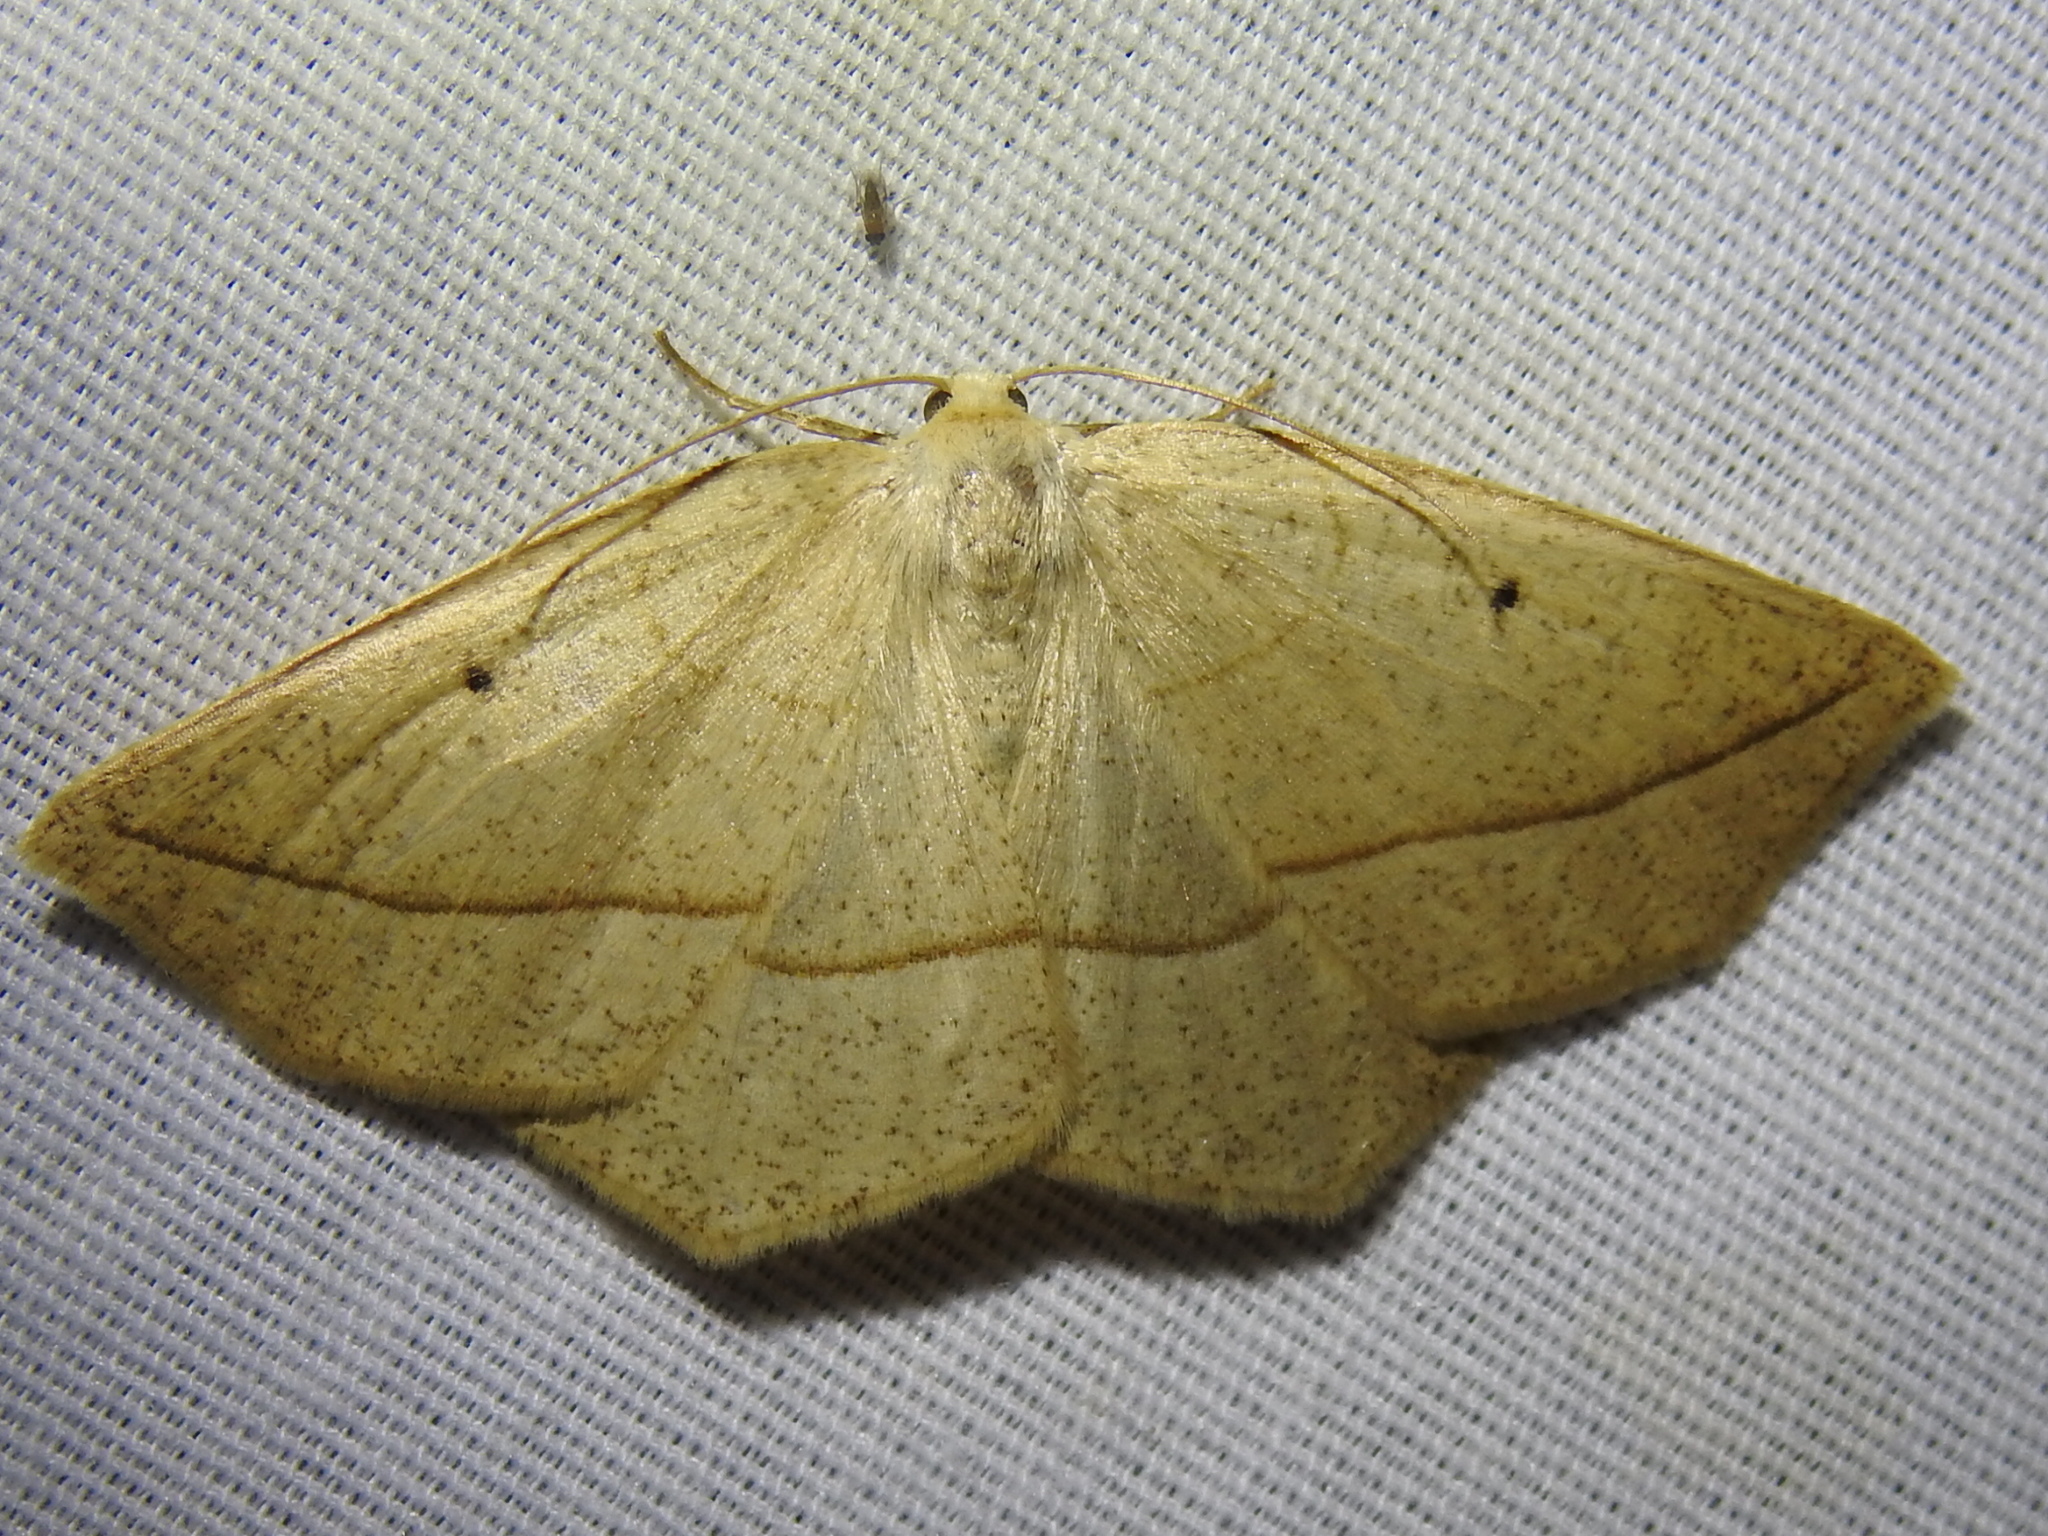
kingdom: Animalia
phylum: Arthropoda
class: Insecta
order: Lepidoptera
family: Geometridae
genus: Eusarca
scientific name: Eusarca confusaria
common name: Confused eusarca
